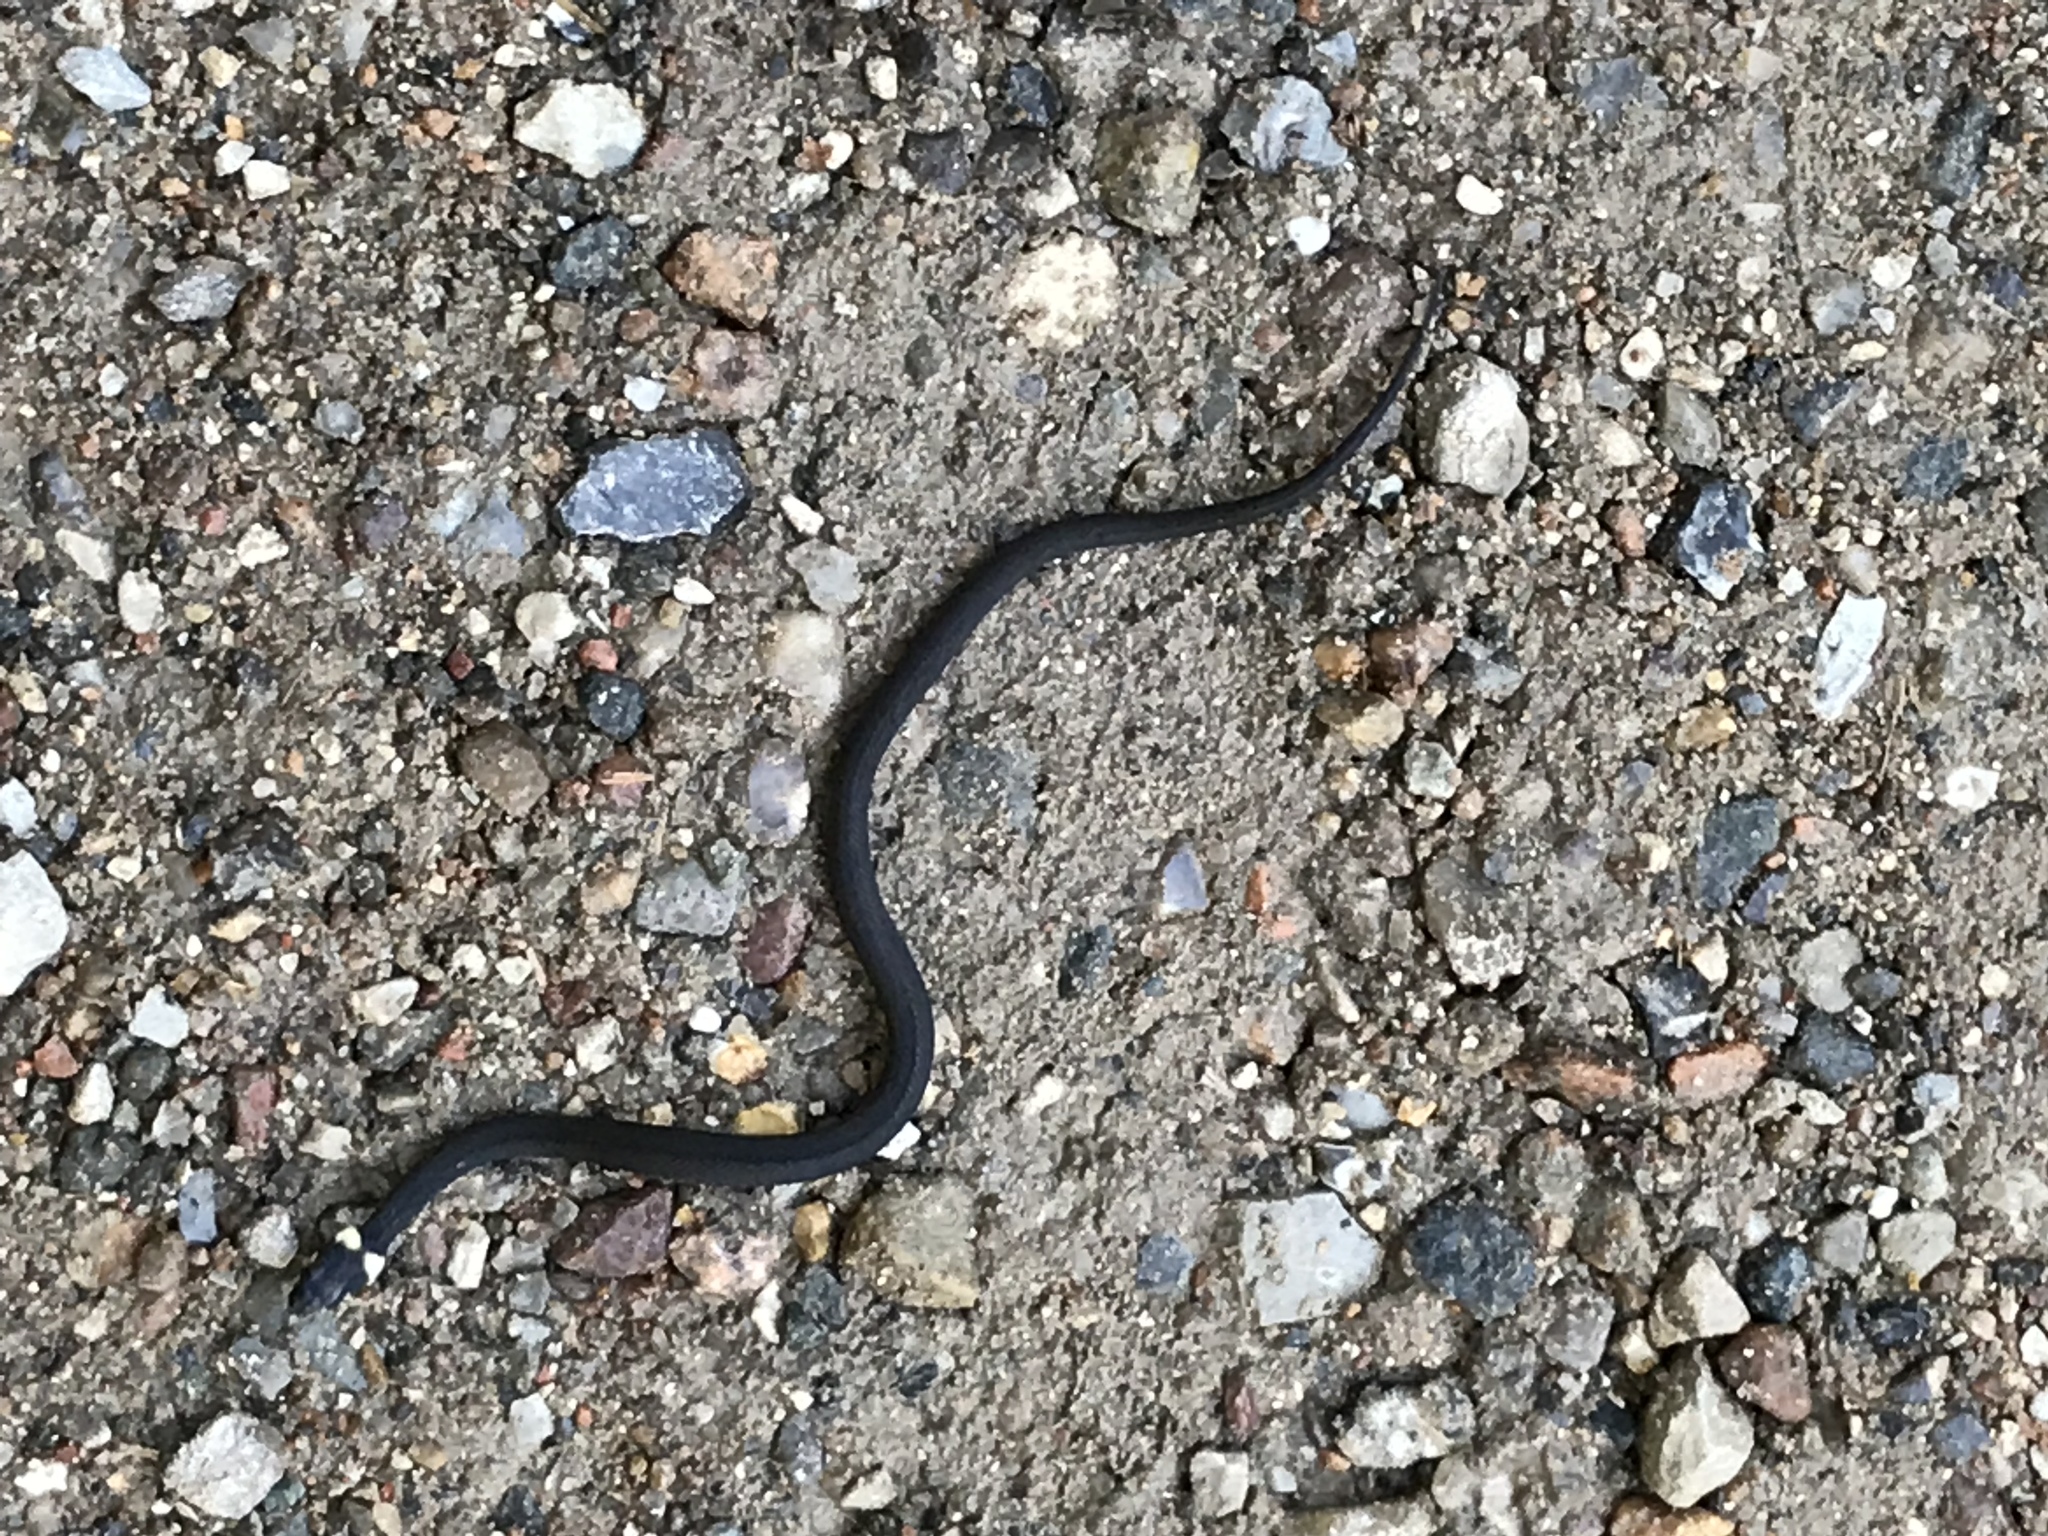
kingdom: Animalia
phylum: Chordata
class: Squamata
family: Colubridae
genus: Natrix
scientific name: Natrix natrix
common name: Grass snake
